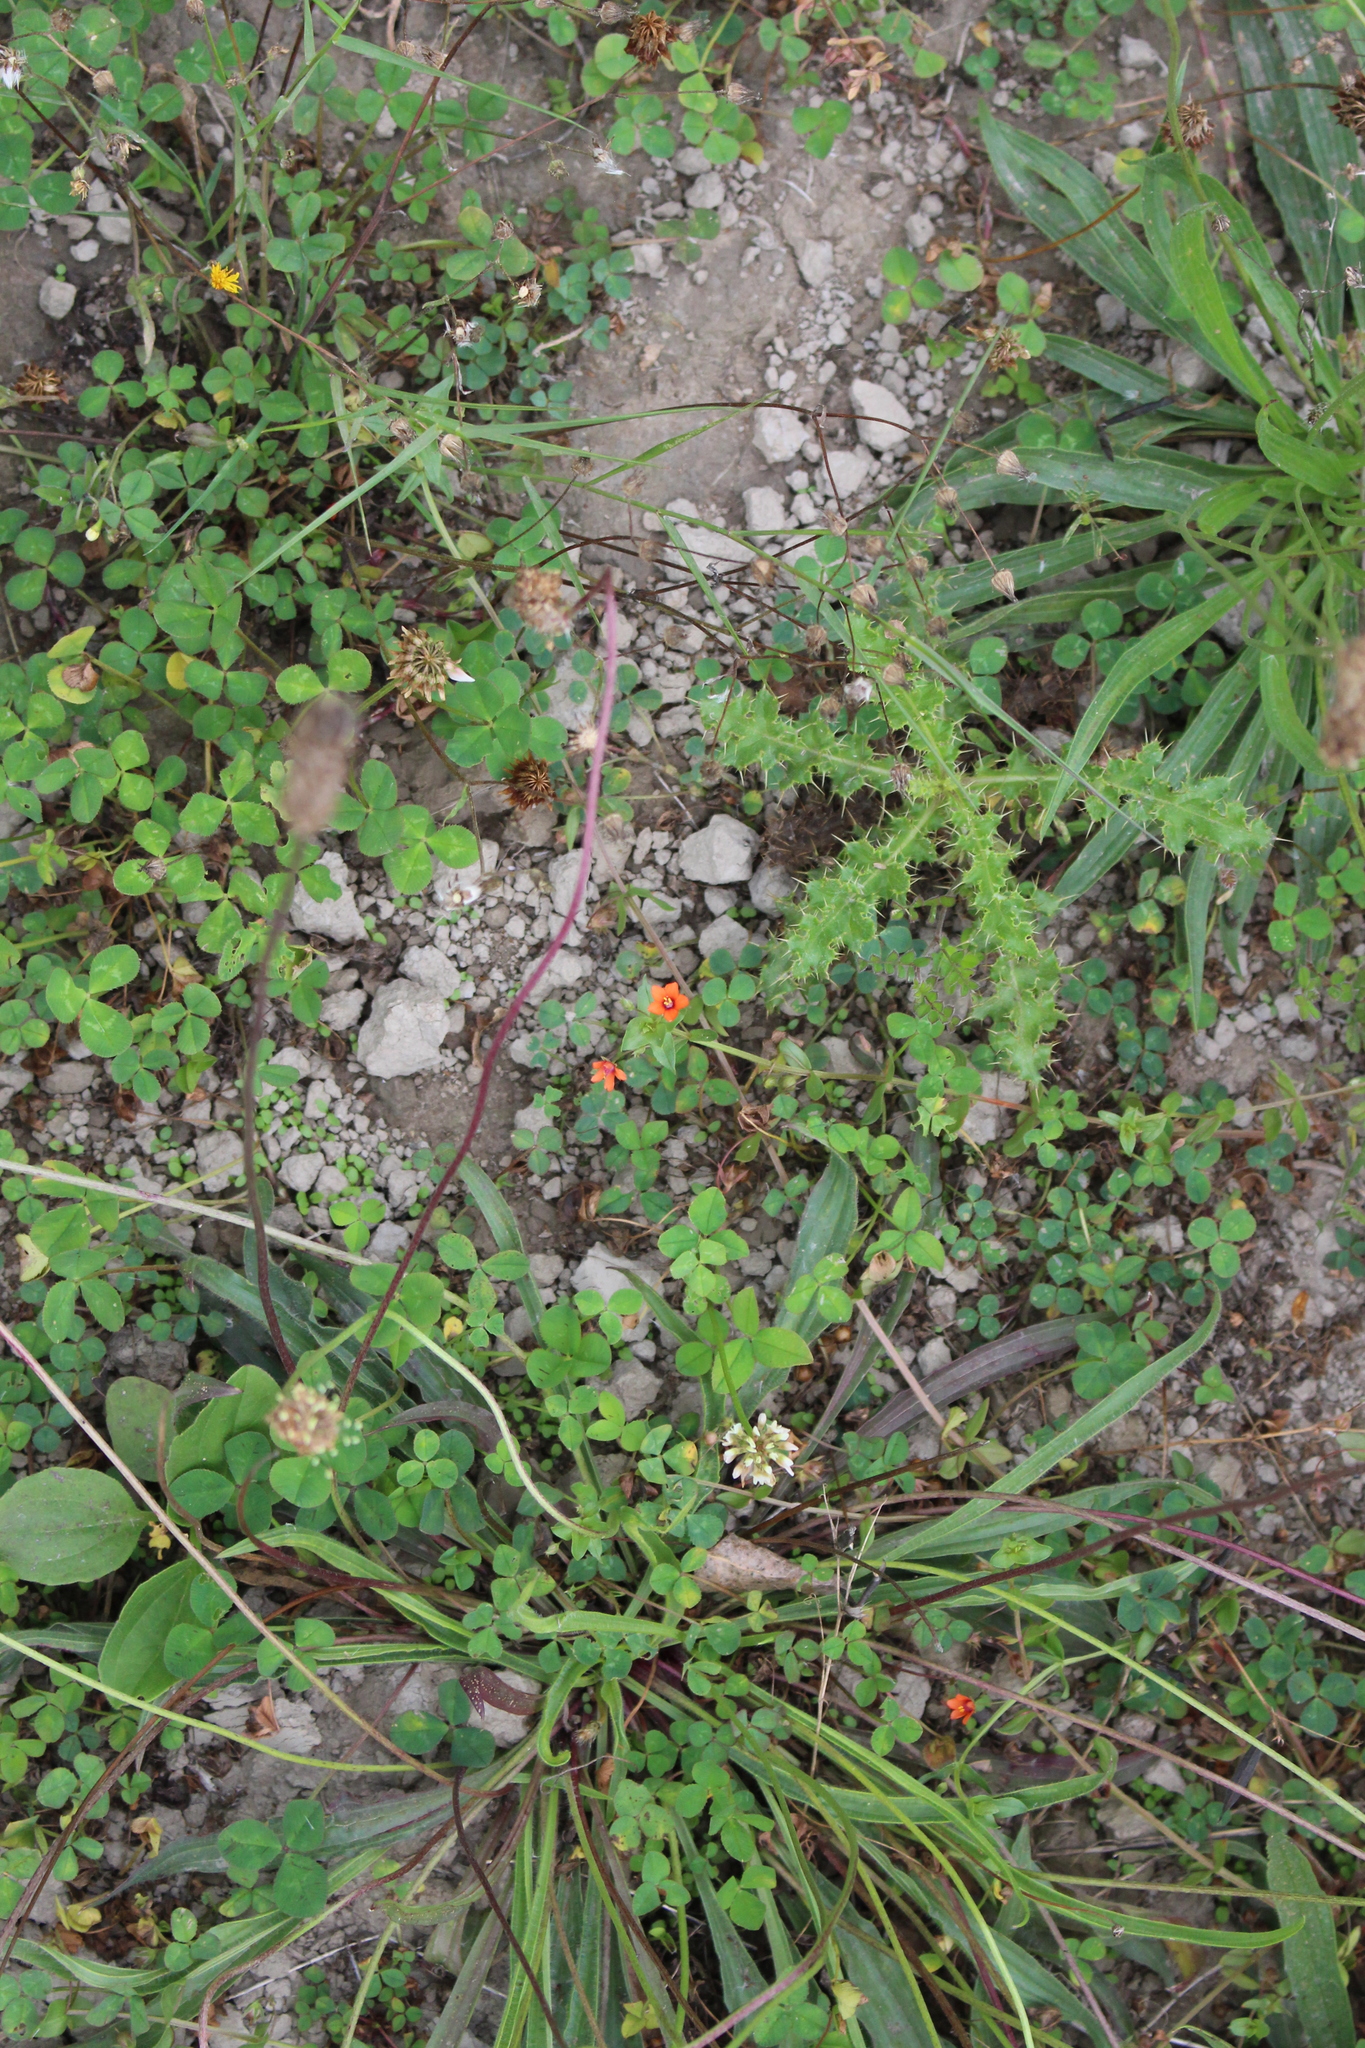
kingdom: Plantae
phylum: Tracheophyta
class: Magnoliopsida
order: Ericales
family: Primulaceae
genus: Lysimachia
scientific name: Lysimachia arvensis
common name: Scarlet pimpernel
